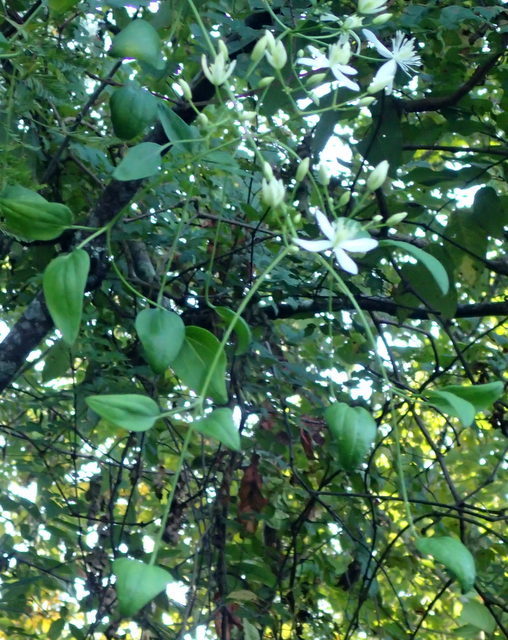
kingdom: Plantae
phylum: Tracheophyta
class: Magnoliopsida
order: Ranunculales
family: Ranunculaceae
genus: Clematis
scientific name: Clematis terniflora
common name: Sweet autumn clematis
